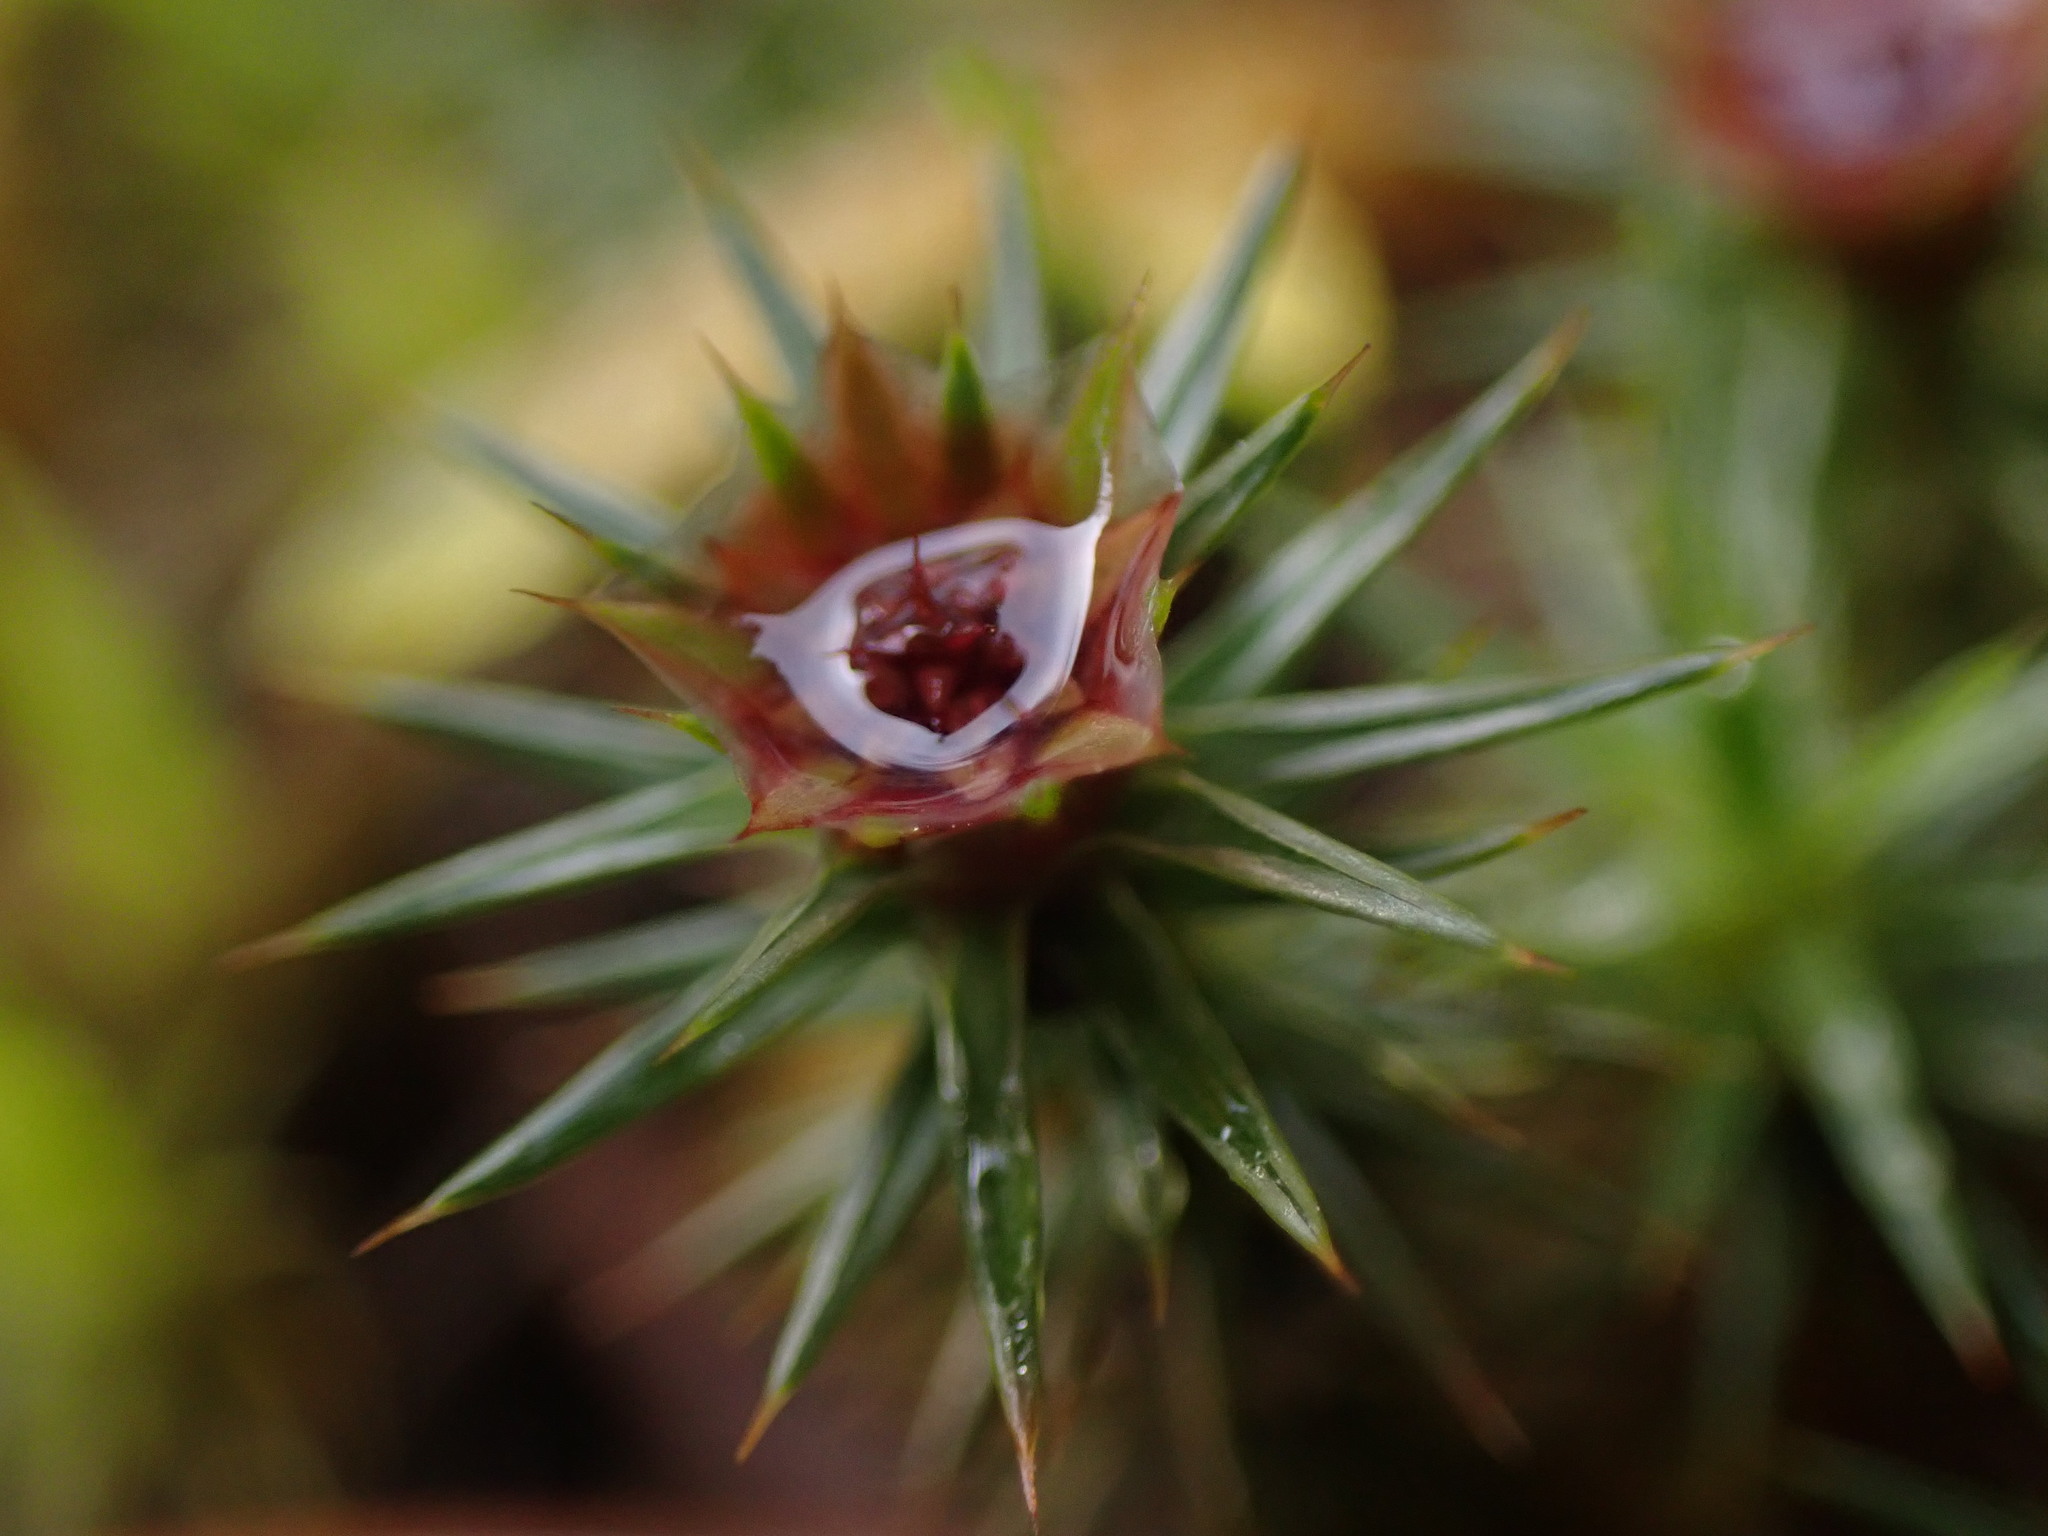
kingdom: Plantae
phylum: Bryophyta
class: Polytrichopsida
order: Polytrichales
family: Polytrichaceae
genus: Polytrichum
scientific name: Polytrichum juniperinum
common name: Juniper haircap moss
